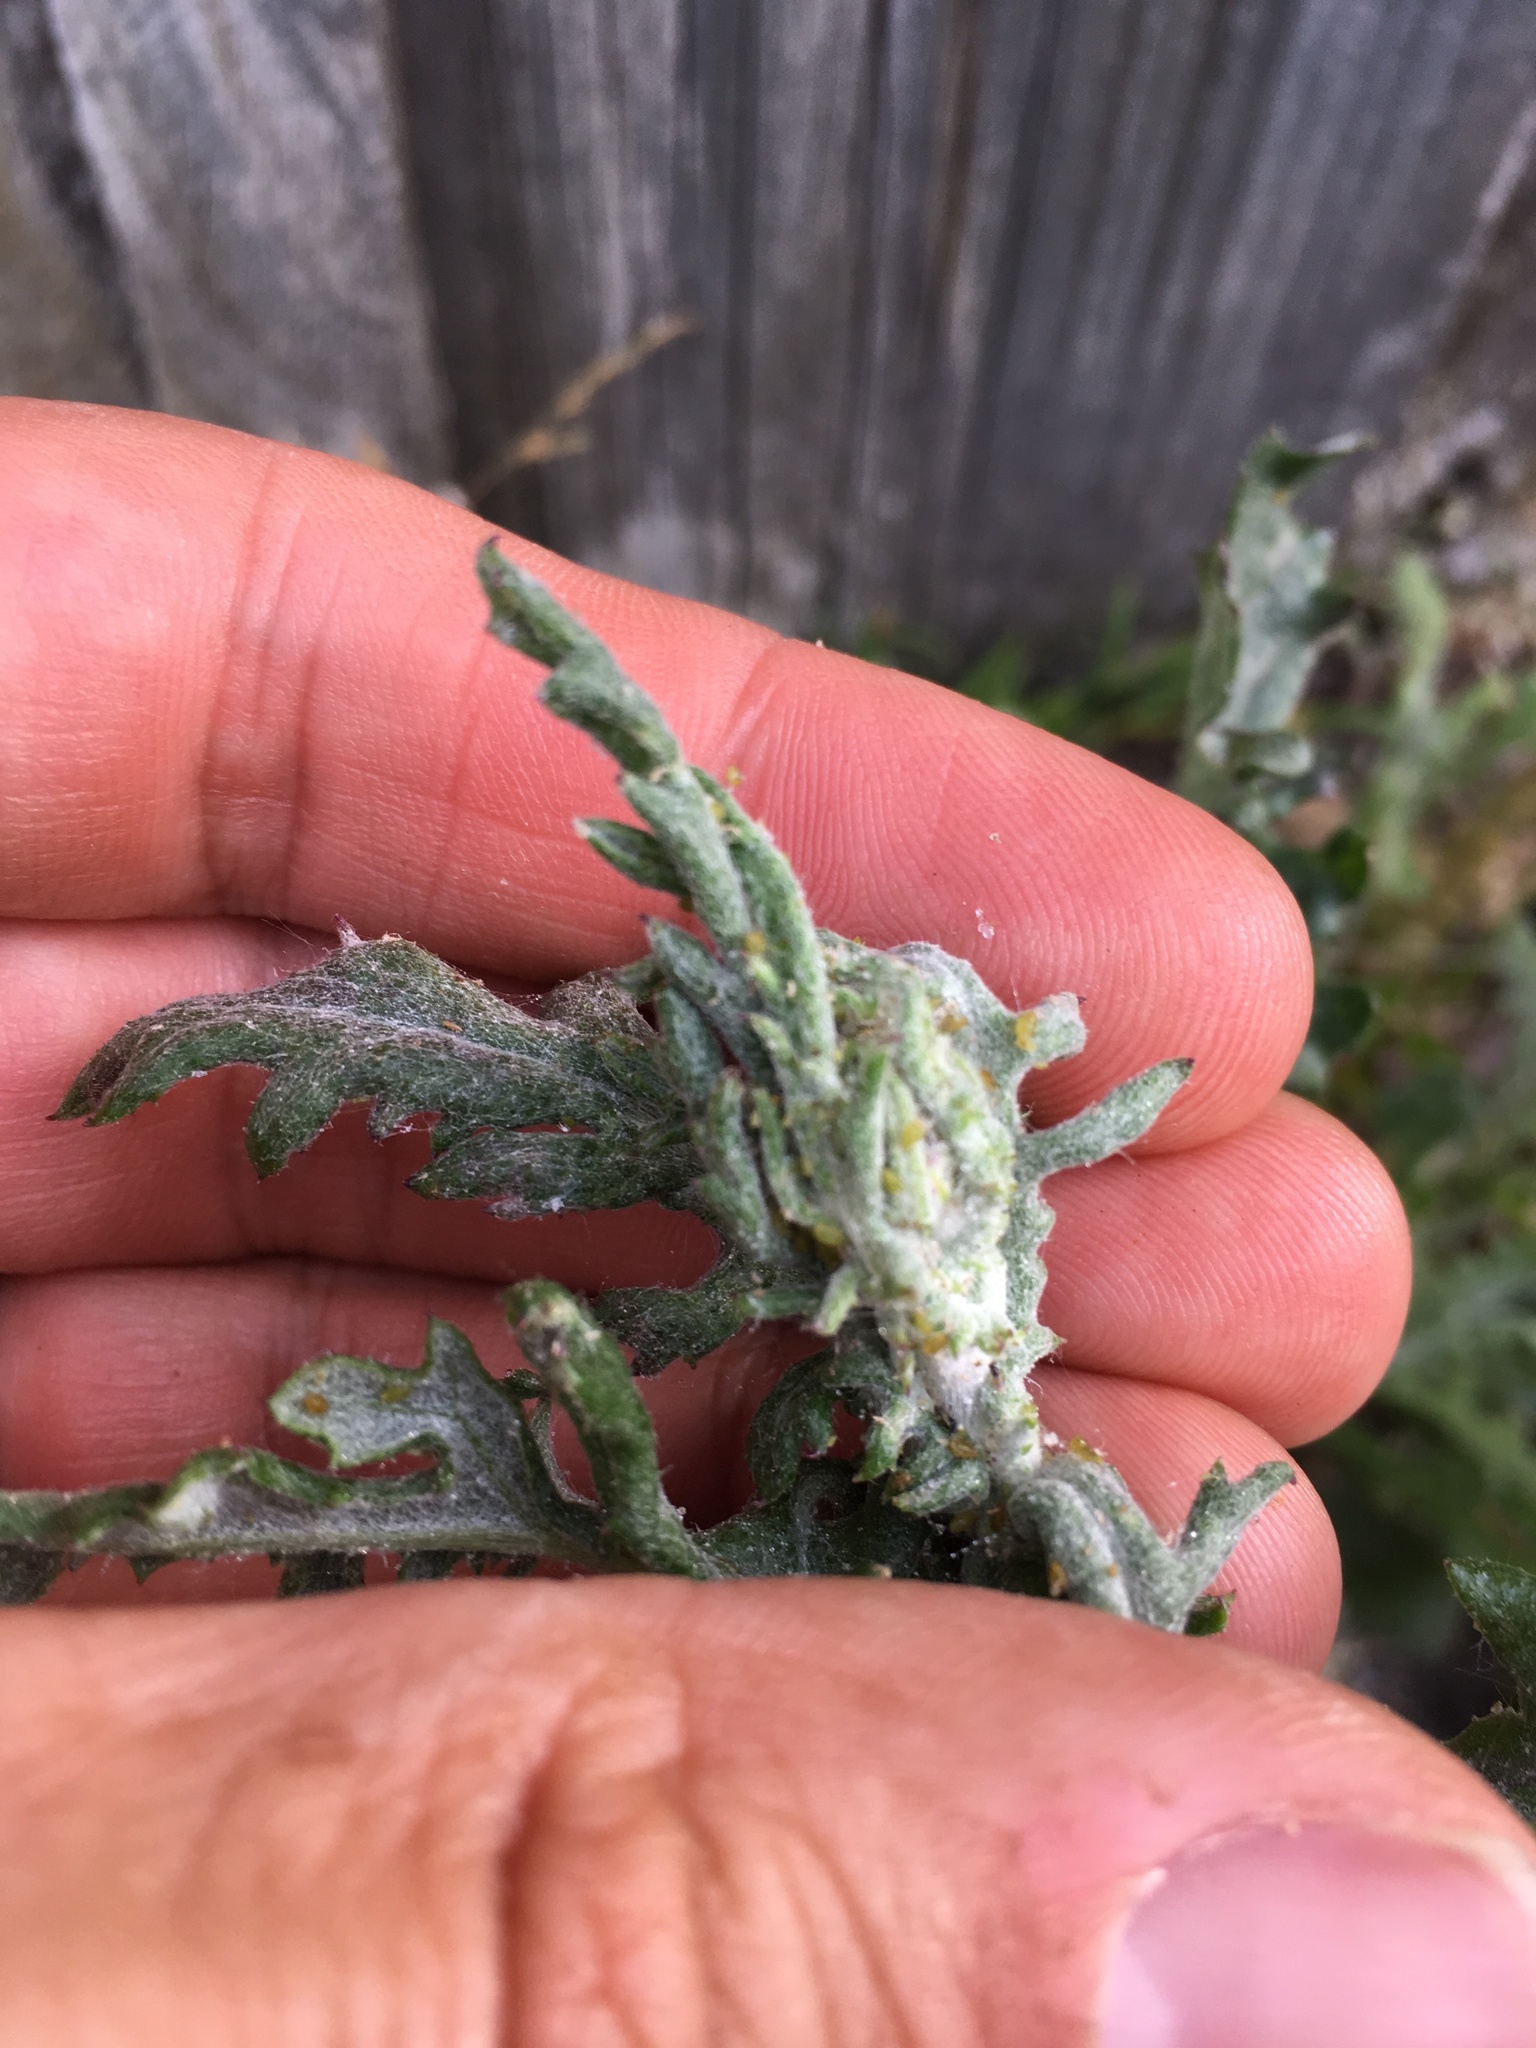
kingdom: Plantae
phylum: Tracheophyta
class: Magnoliopsida
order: Asterales
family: Asteraceae
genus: Senecio
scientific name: Senecio glomeratus
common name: Cutleaf burnweed
